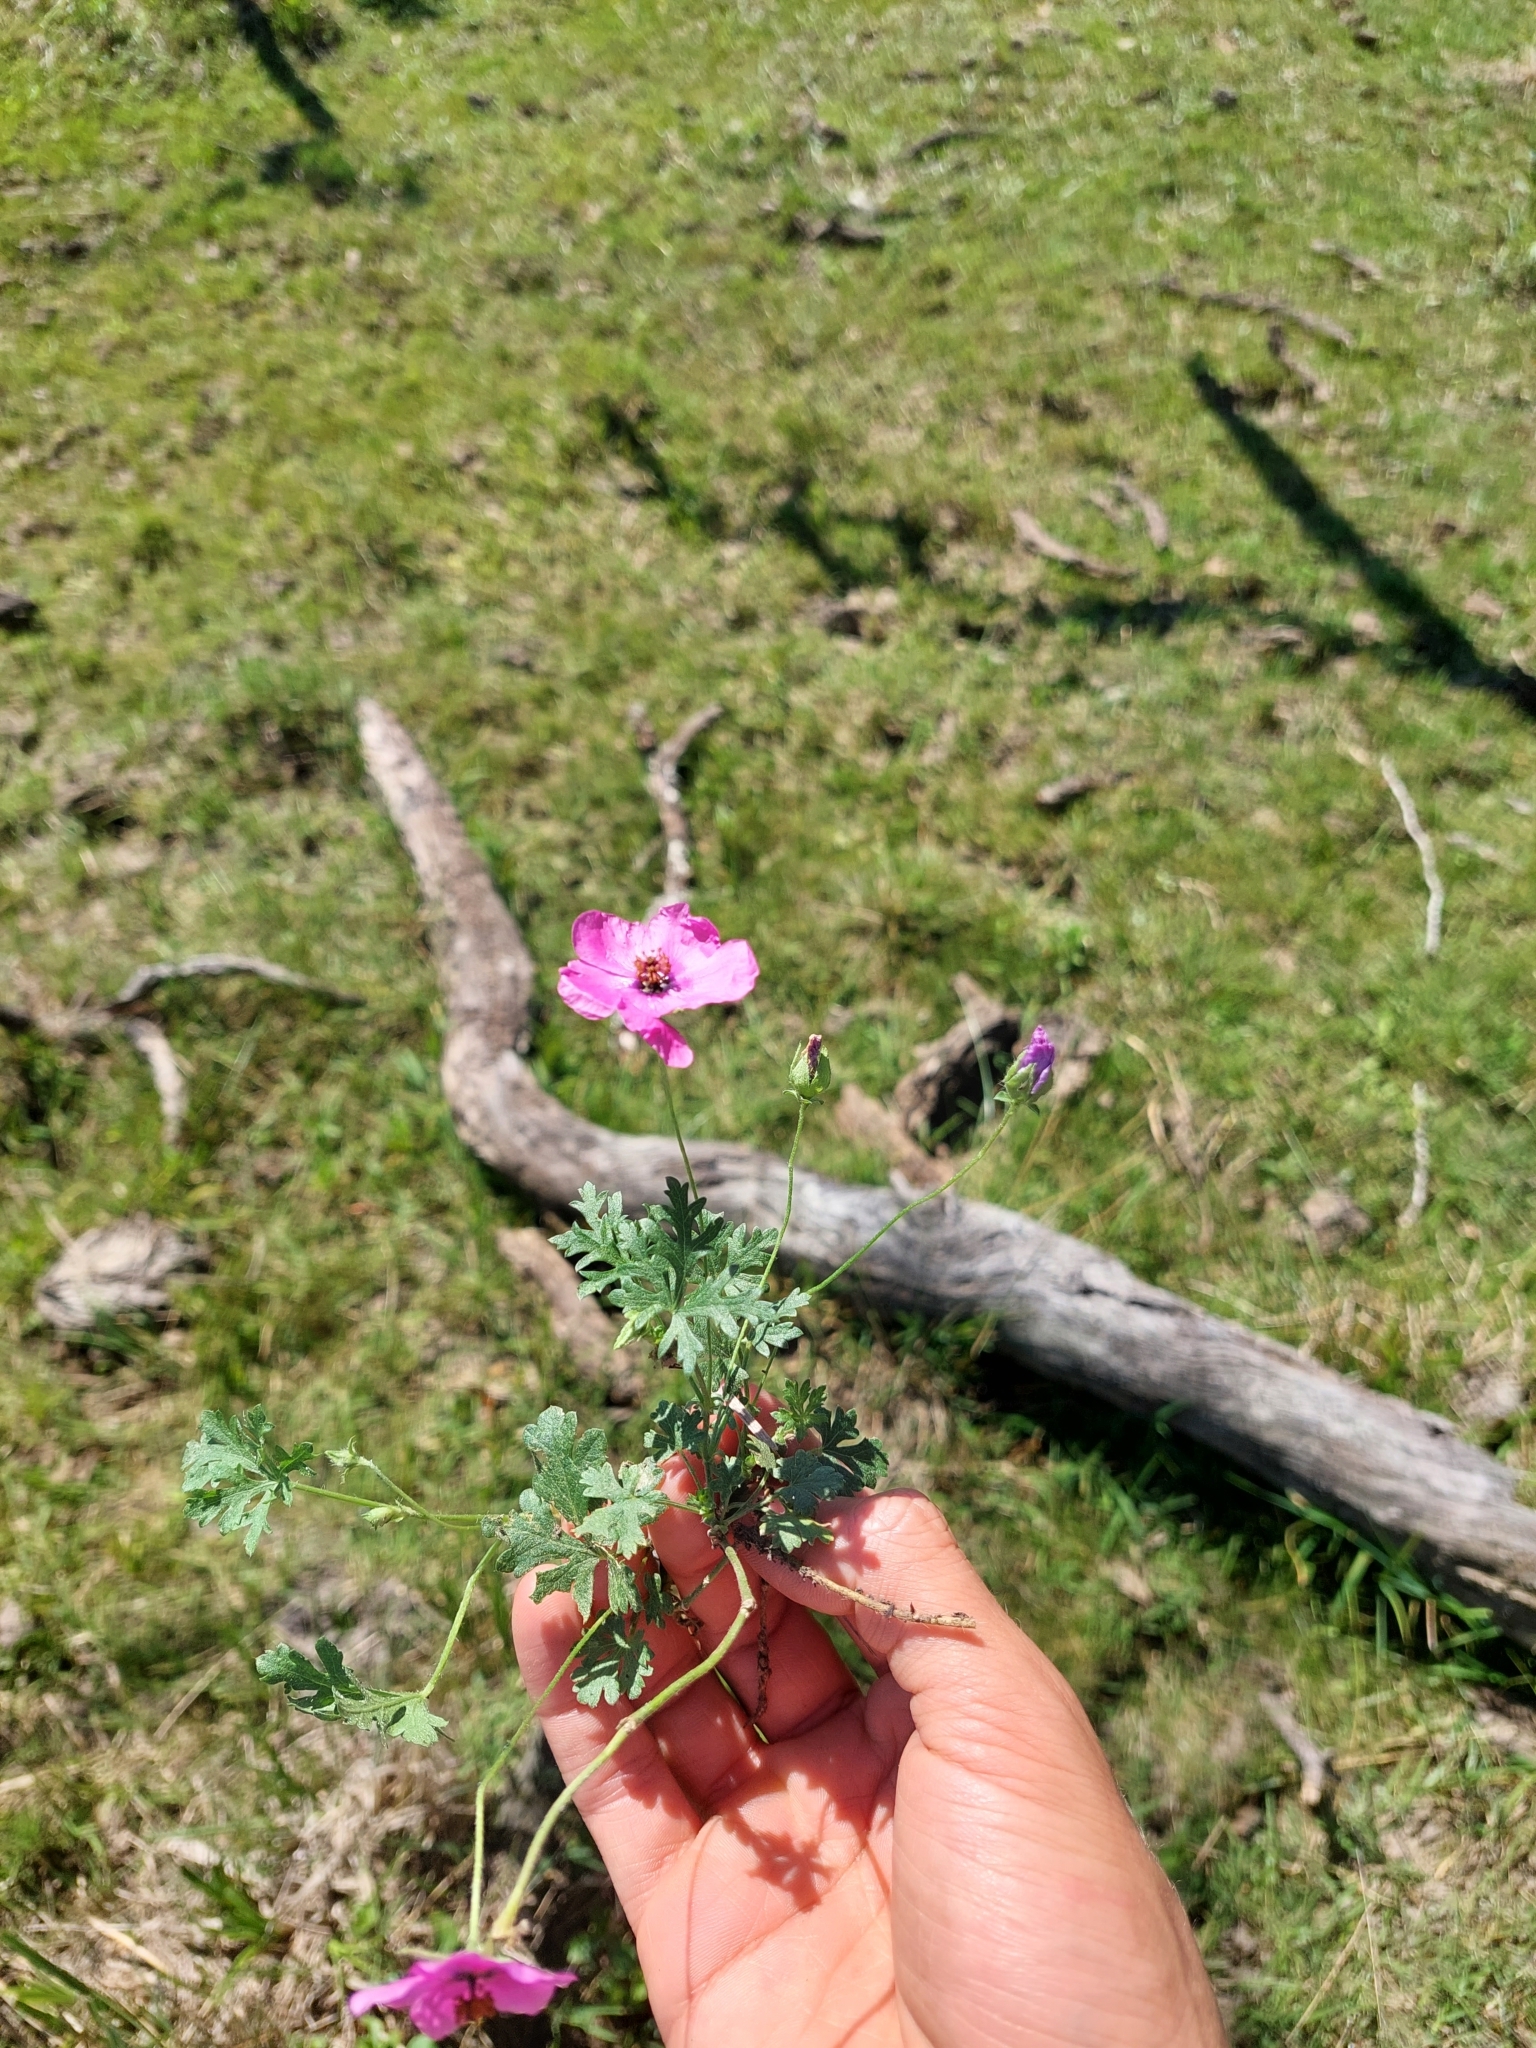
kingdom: Plantae
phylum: Tracheophyta
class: Magnoliopsida
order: Malvales
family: Malvaceae
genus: Modiolastrum
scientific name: Modiolastrum gilliesii
